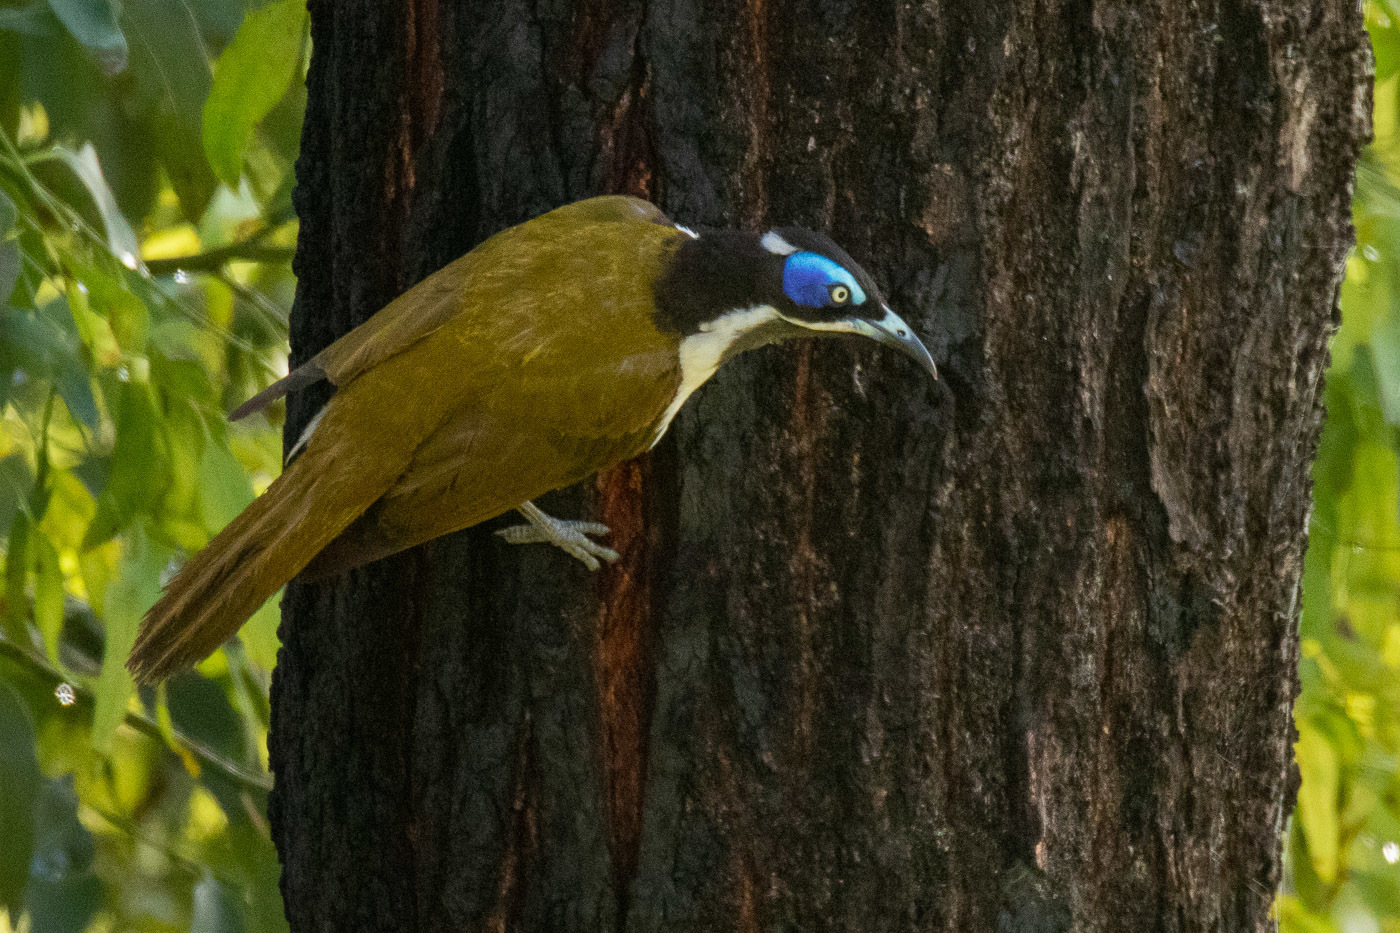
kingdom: Animalia
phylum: Chordata
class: Aves
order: Passeriformes
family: Meliphagidae
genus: Entomyzon
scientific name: Entomyzon cyanotis
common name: Blue-faced honeyeater
